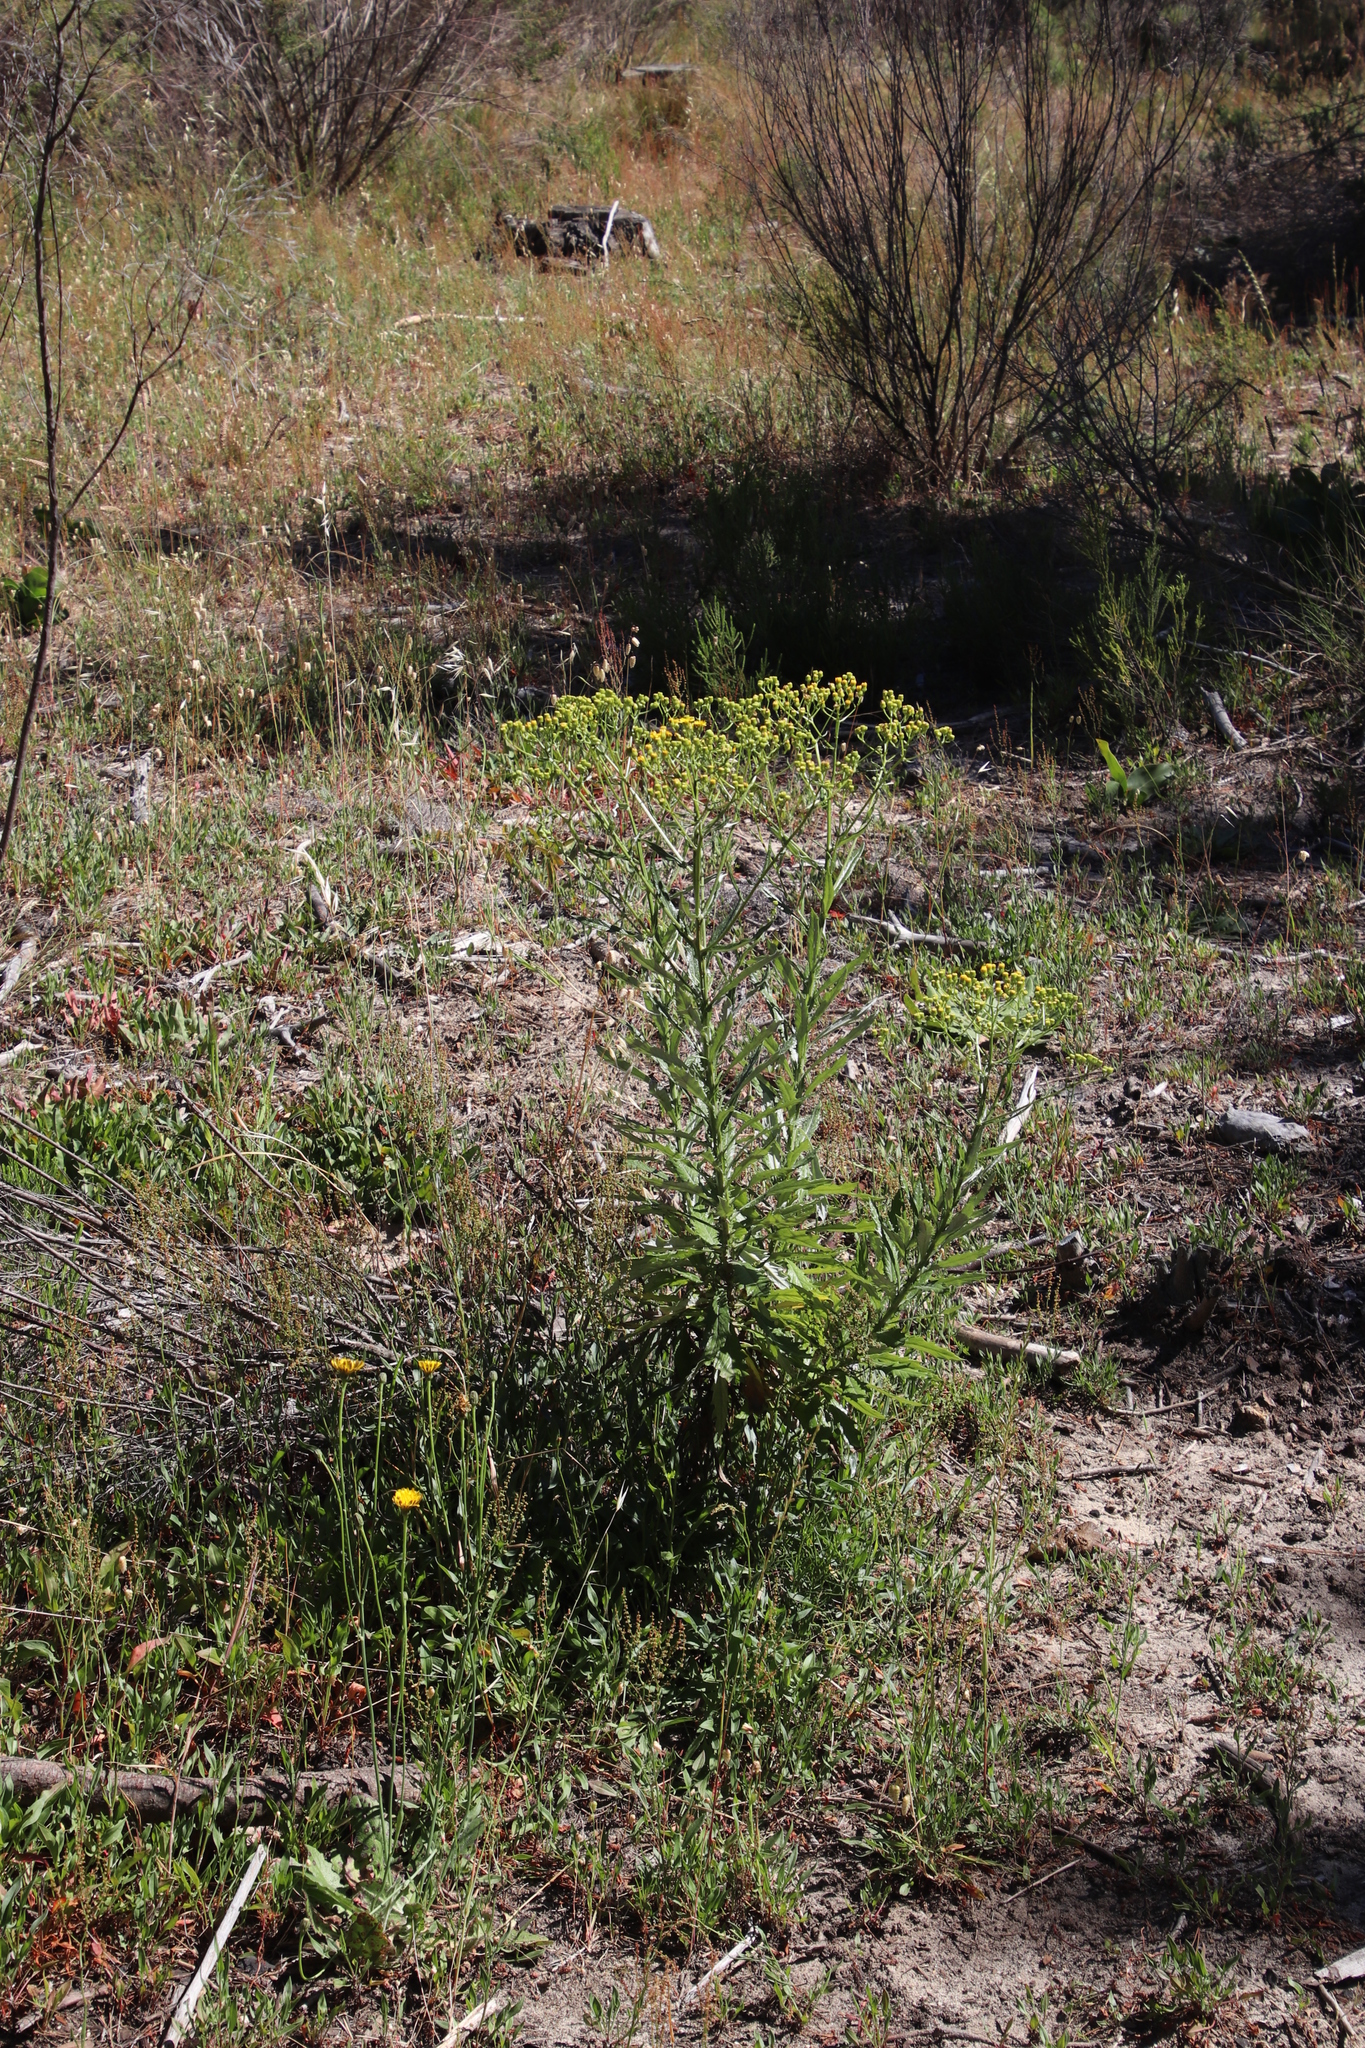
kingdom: Plantae
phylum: Tracheophyta
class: Magnoliopsida
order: Asterales
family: Asteraceae
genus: Senecio
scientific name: Senecio pterophorus
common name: Shoddy ragwort
